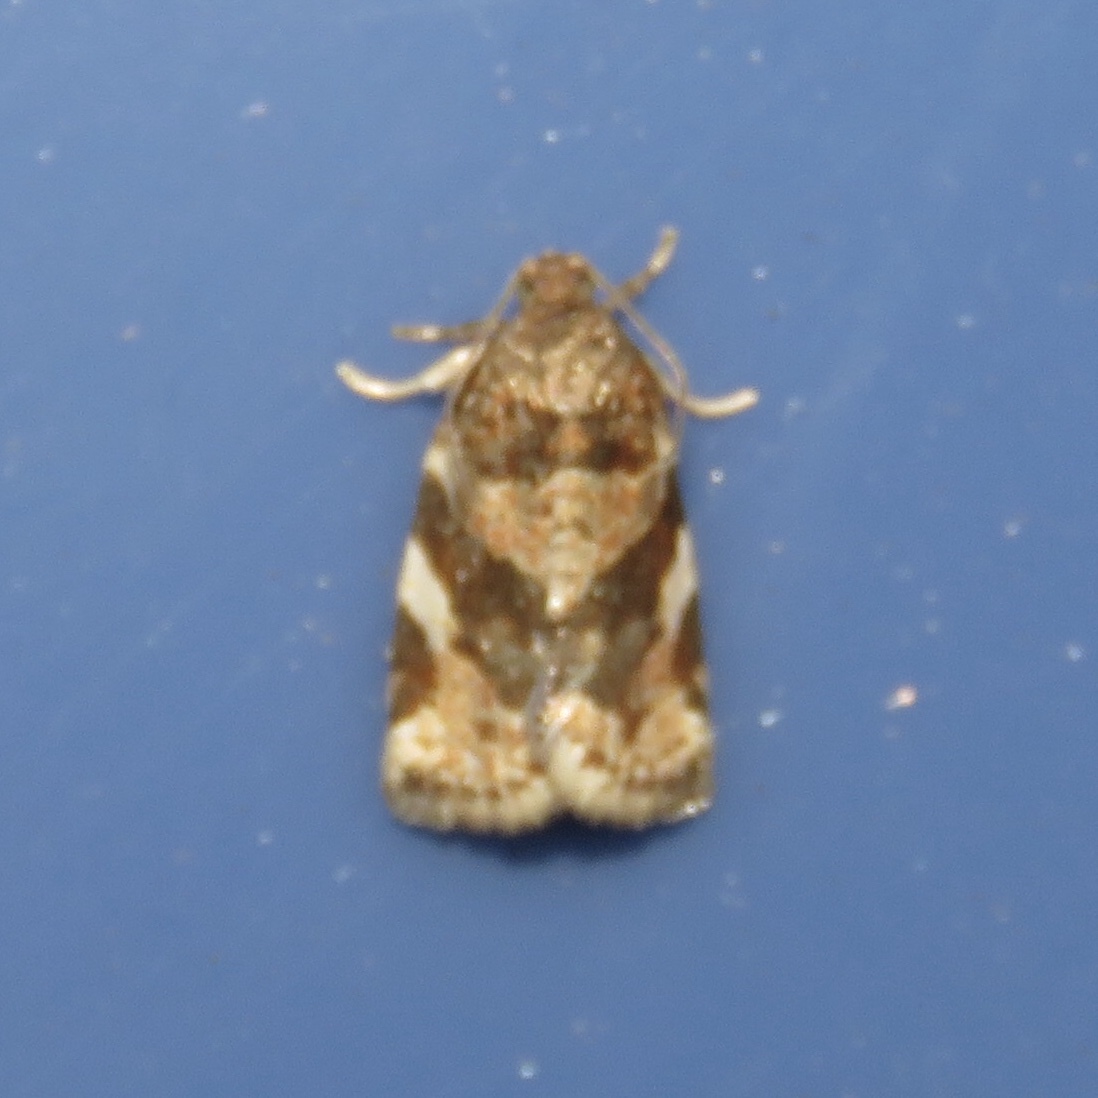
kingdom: Animalia
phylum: Arthropoda
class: Insecta
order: Lepidoptera
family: Tortricidae
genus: Archips
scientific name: Archips argyrospila
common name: Fruit-tree leafroller moth
